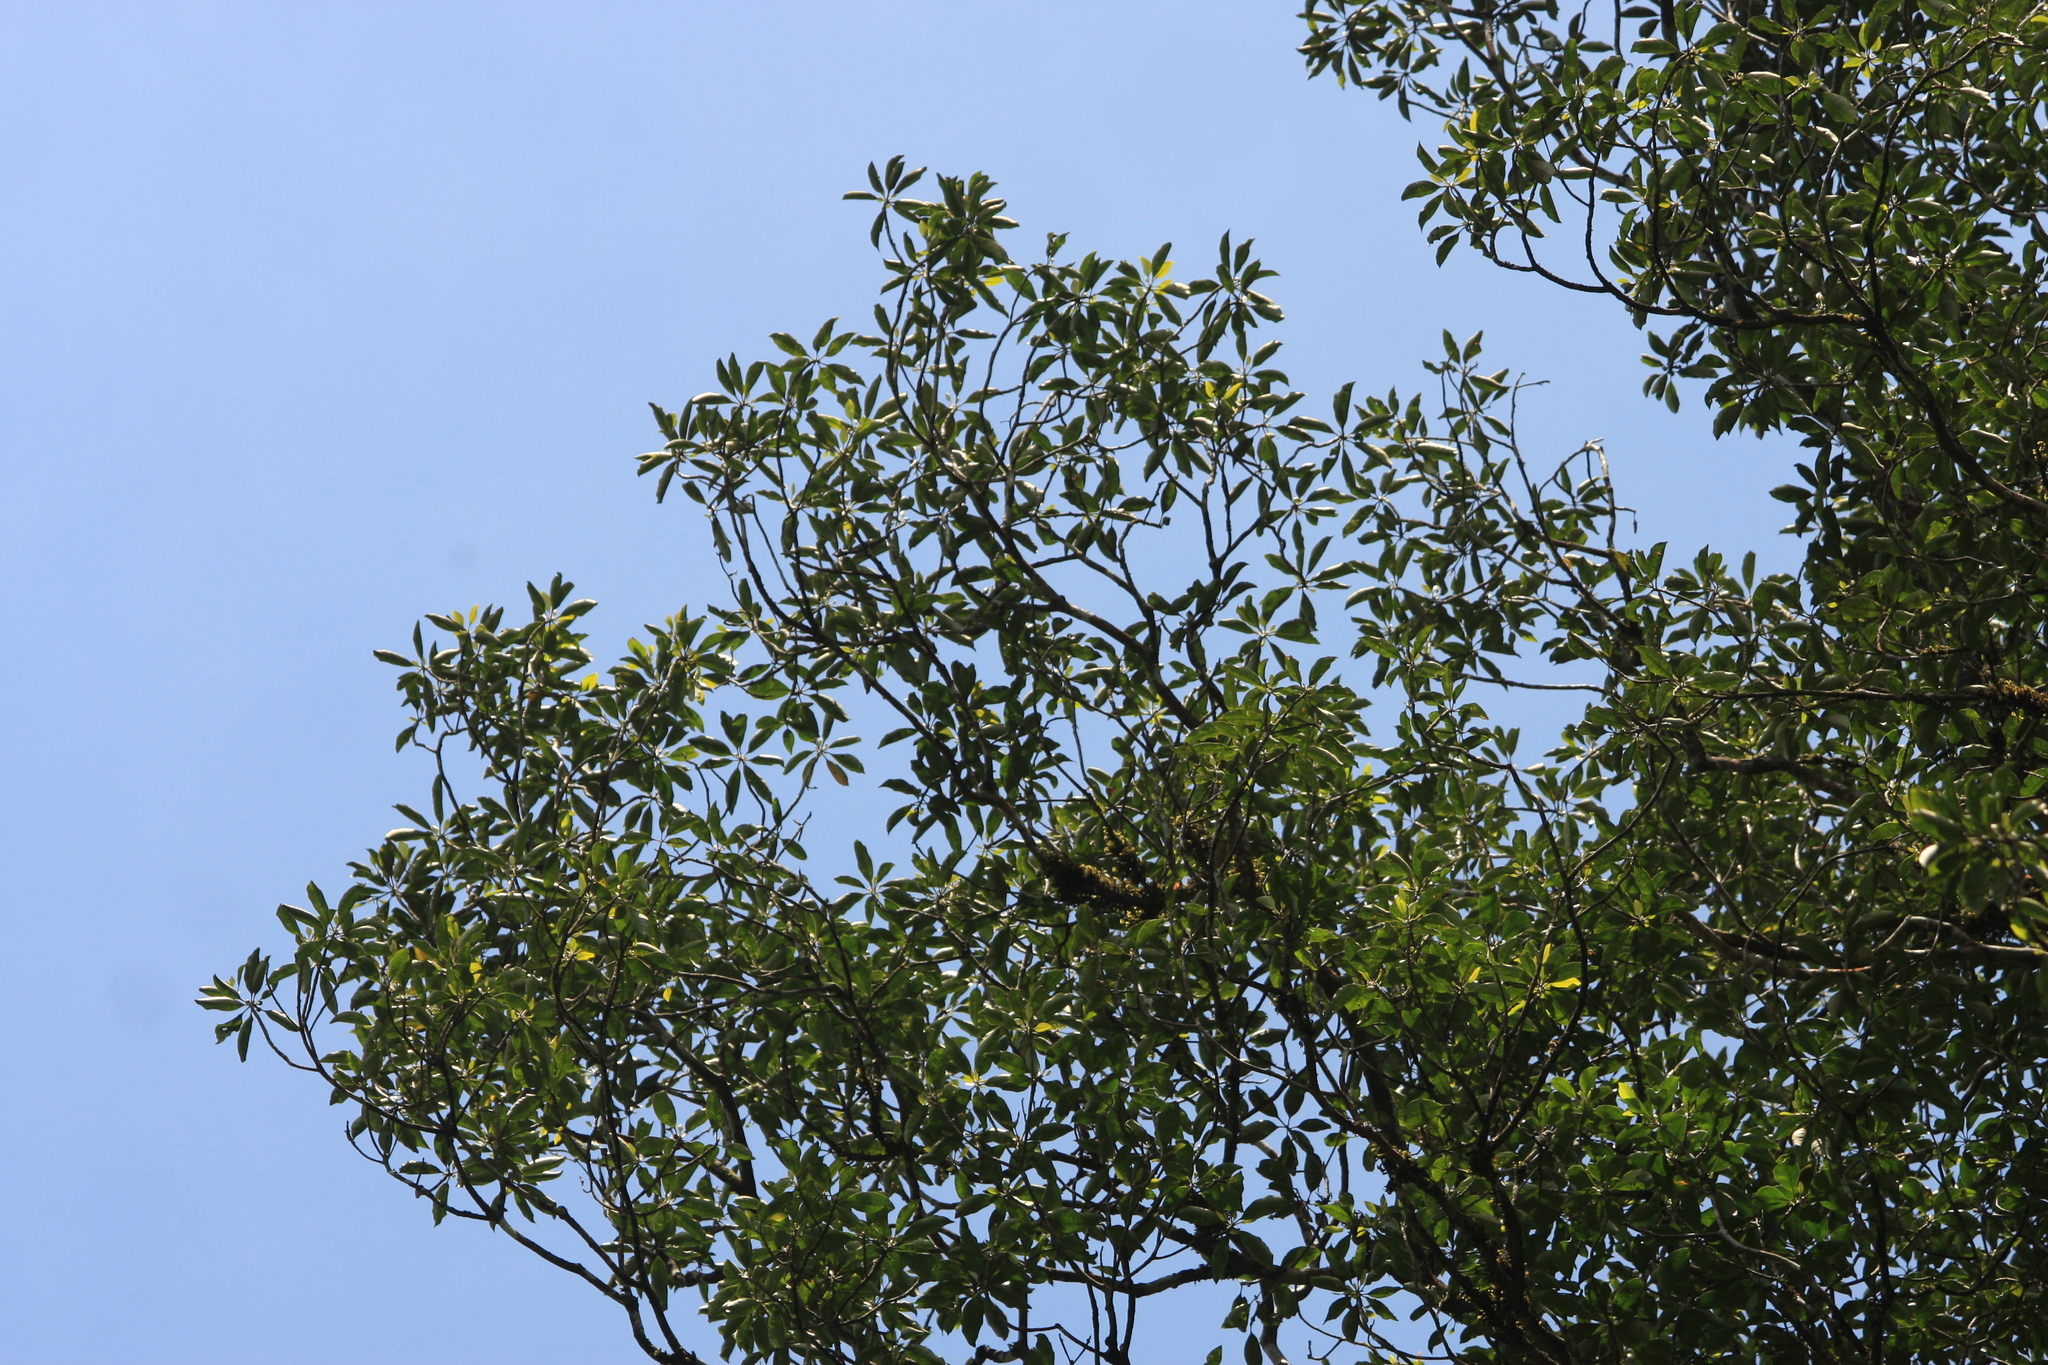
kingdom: Plantae
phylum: Tracheophyta
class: Magnoliopsida
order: Ericales
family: Sapotaceae
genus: Palaquium
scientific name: Palaquium ellipticum
